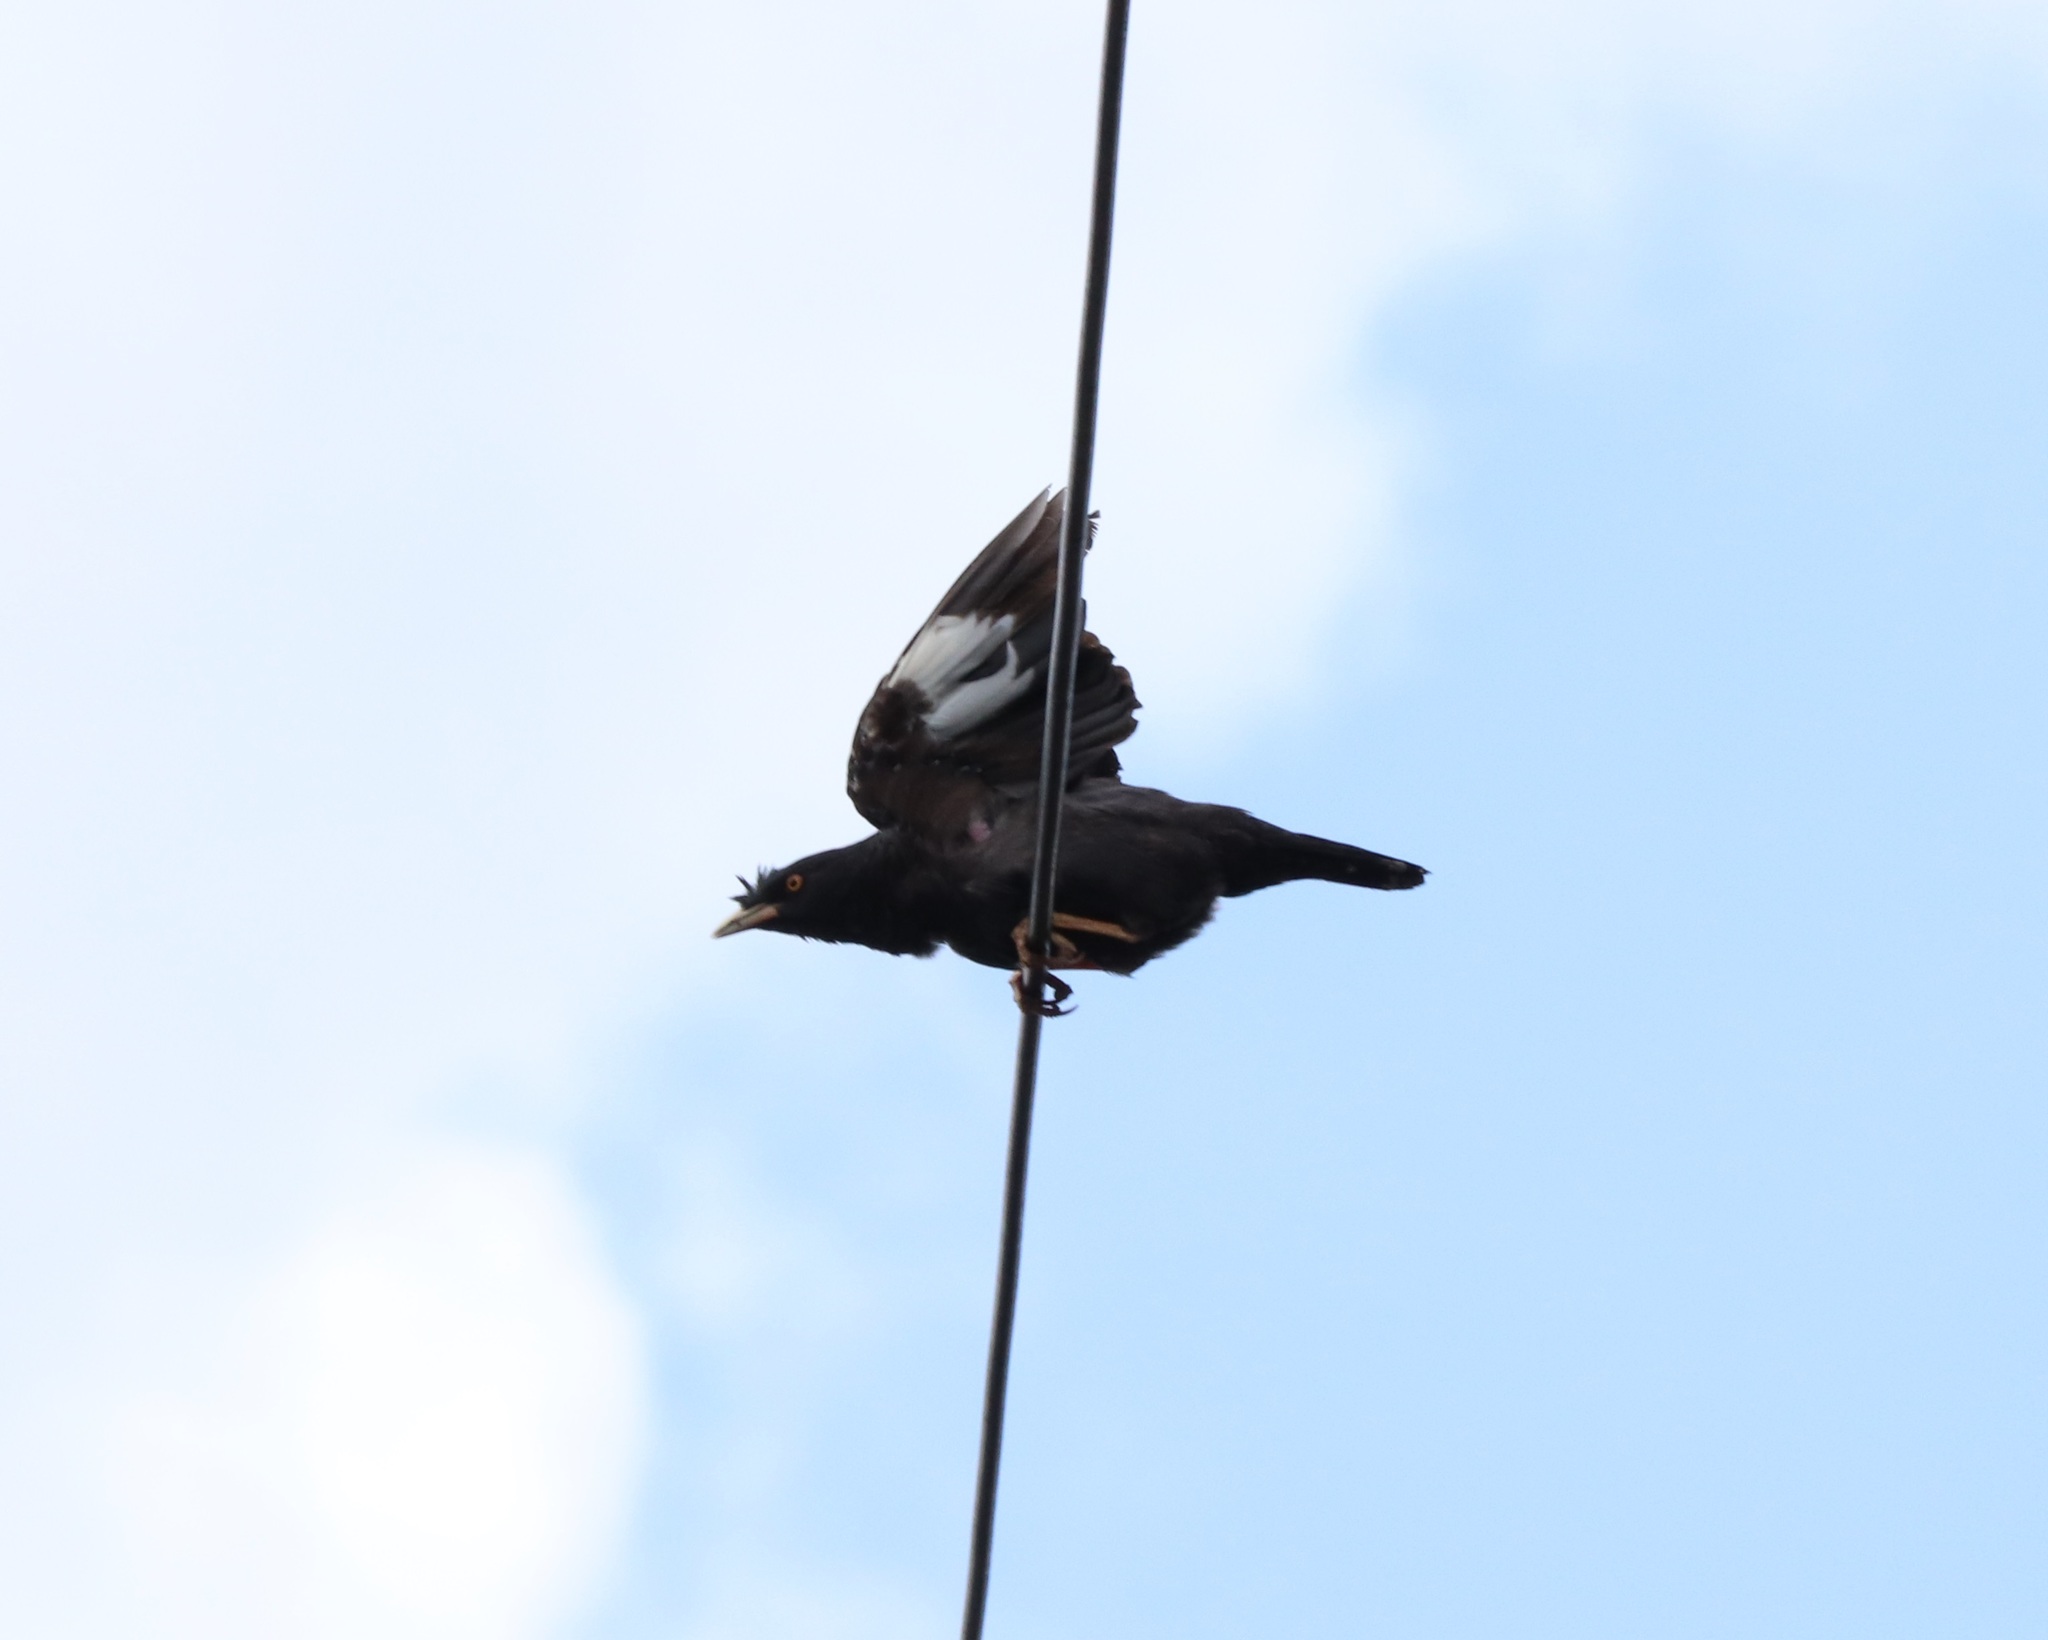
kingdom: Animalia
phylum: Chordata
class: Aves
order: Passeriformes
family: Sturnidae
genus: Acridotheres
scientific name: Acridotheres cristatellus
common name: Crested myna
